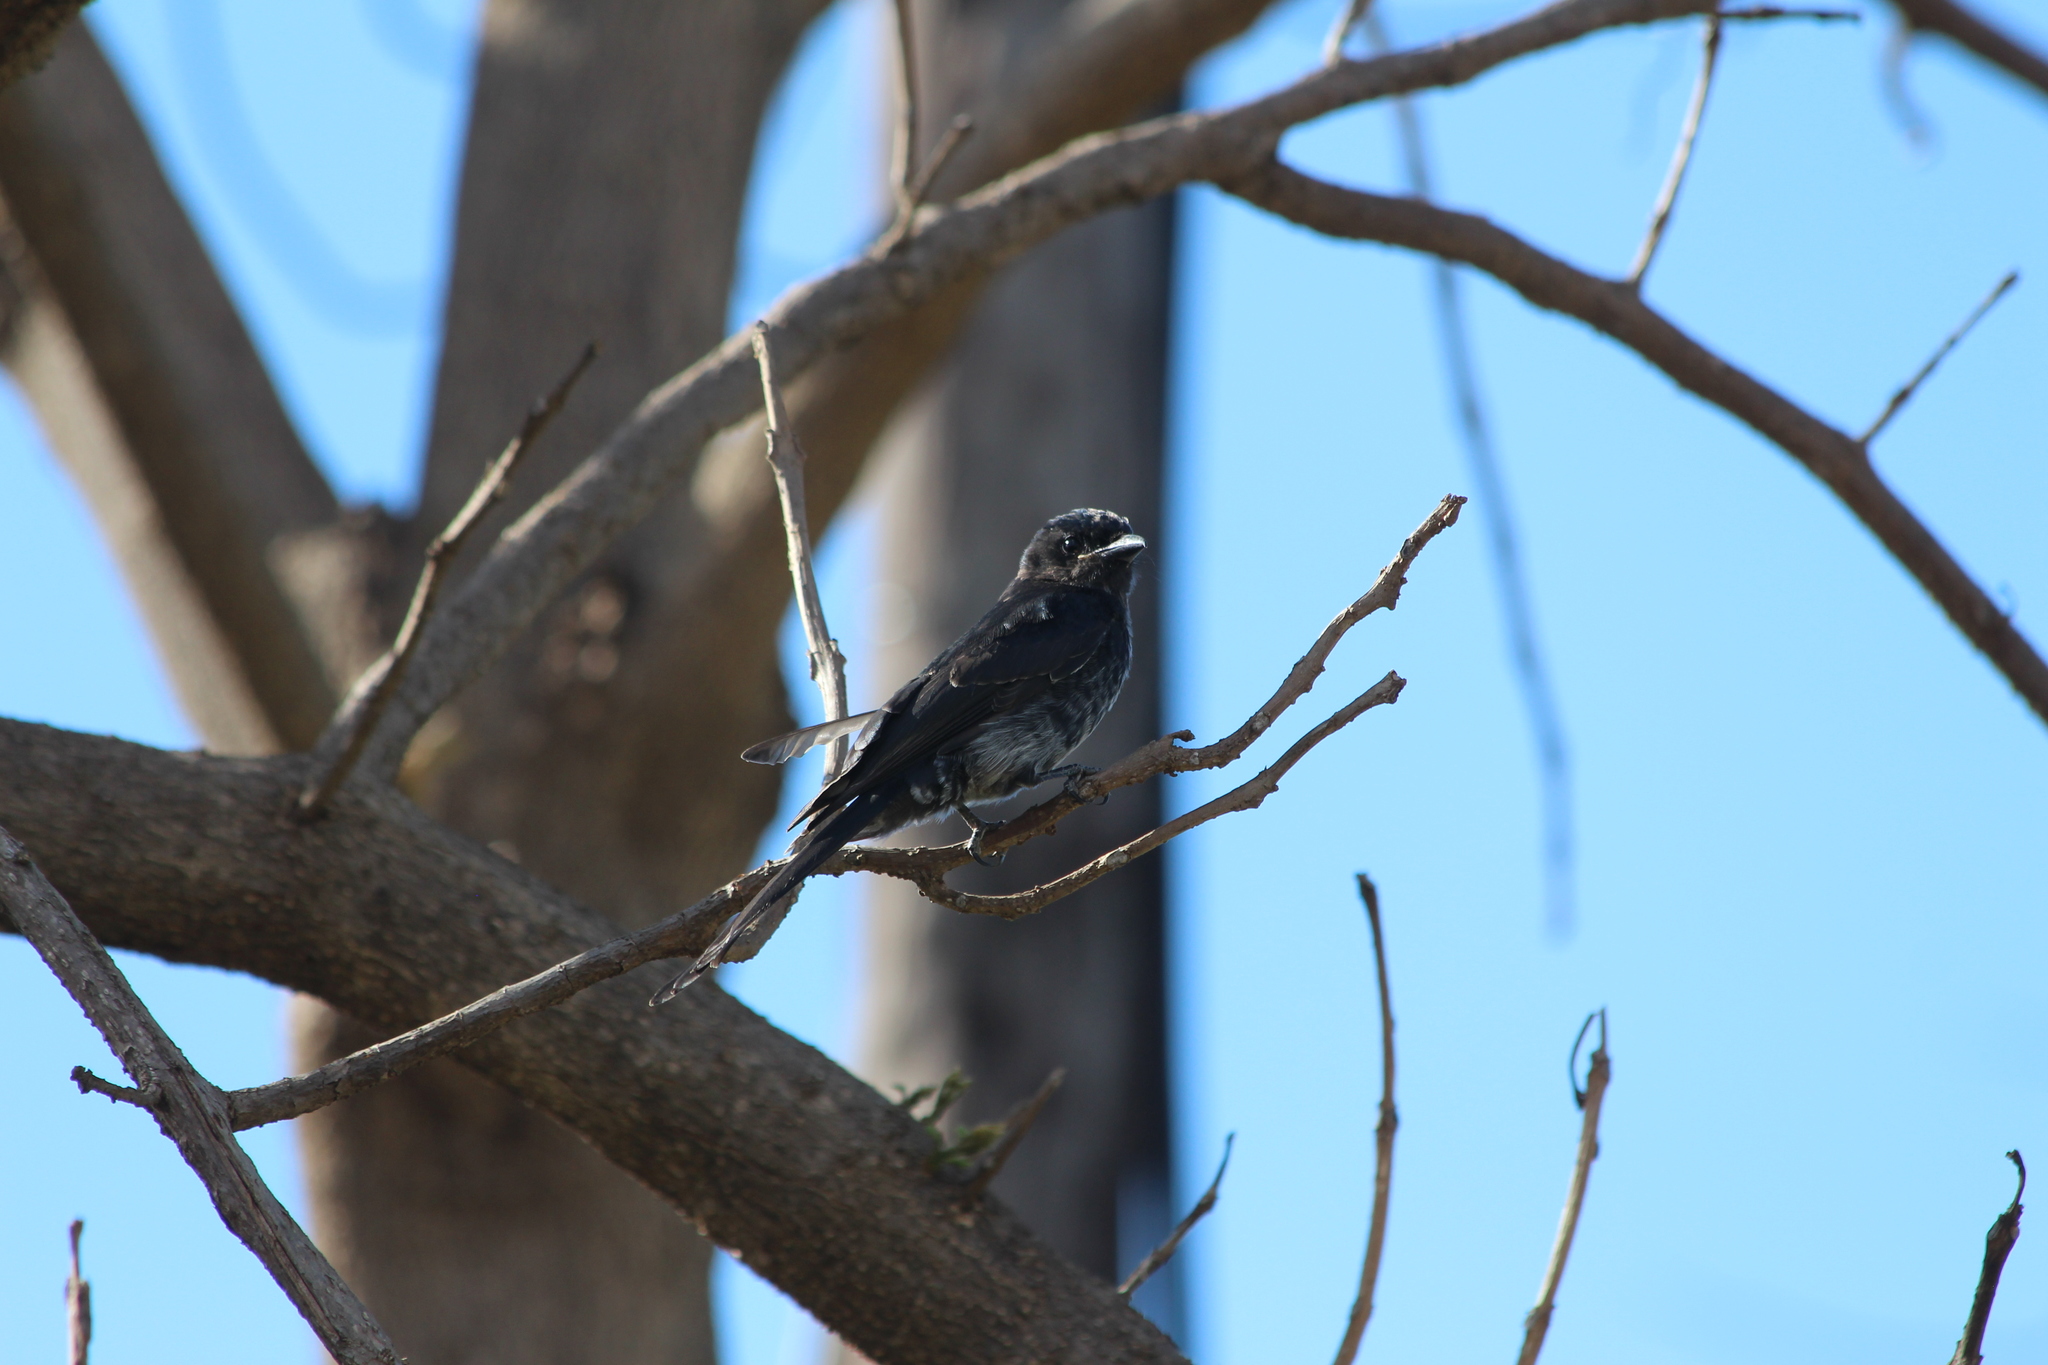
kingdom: Animalia
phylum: Chordata
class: Aves
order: Passeriformes
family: Dicruridae
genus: Dicrurus
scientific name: Dicrurus adsimilis
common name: Fork-tailed drongo
